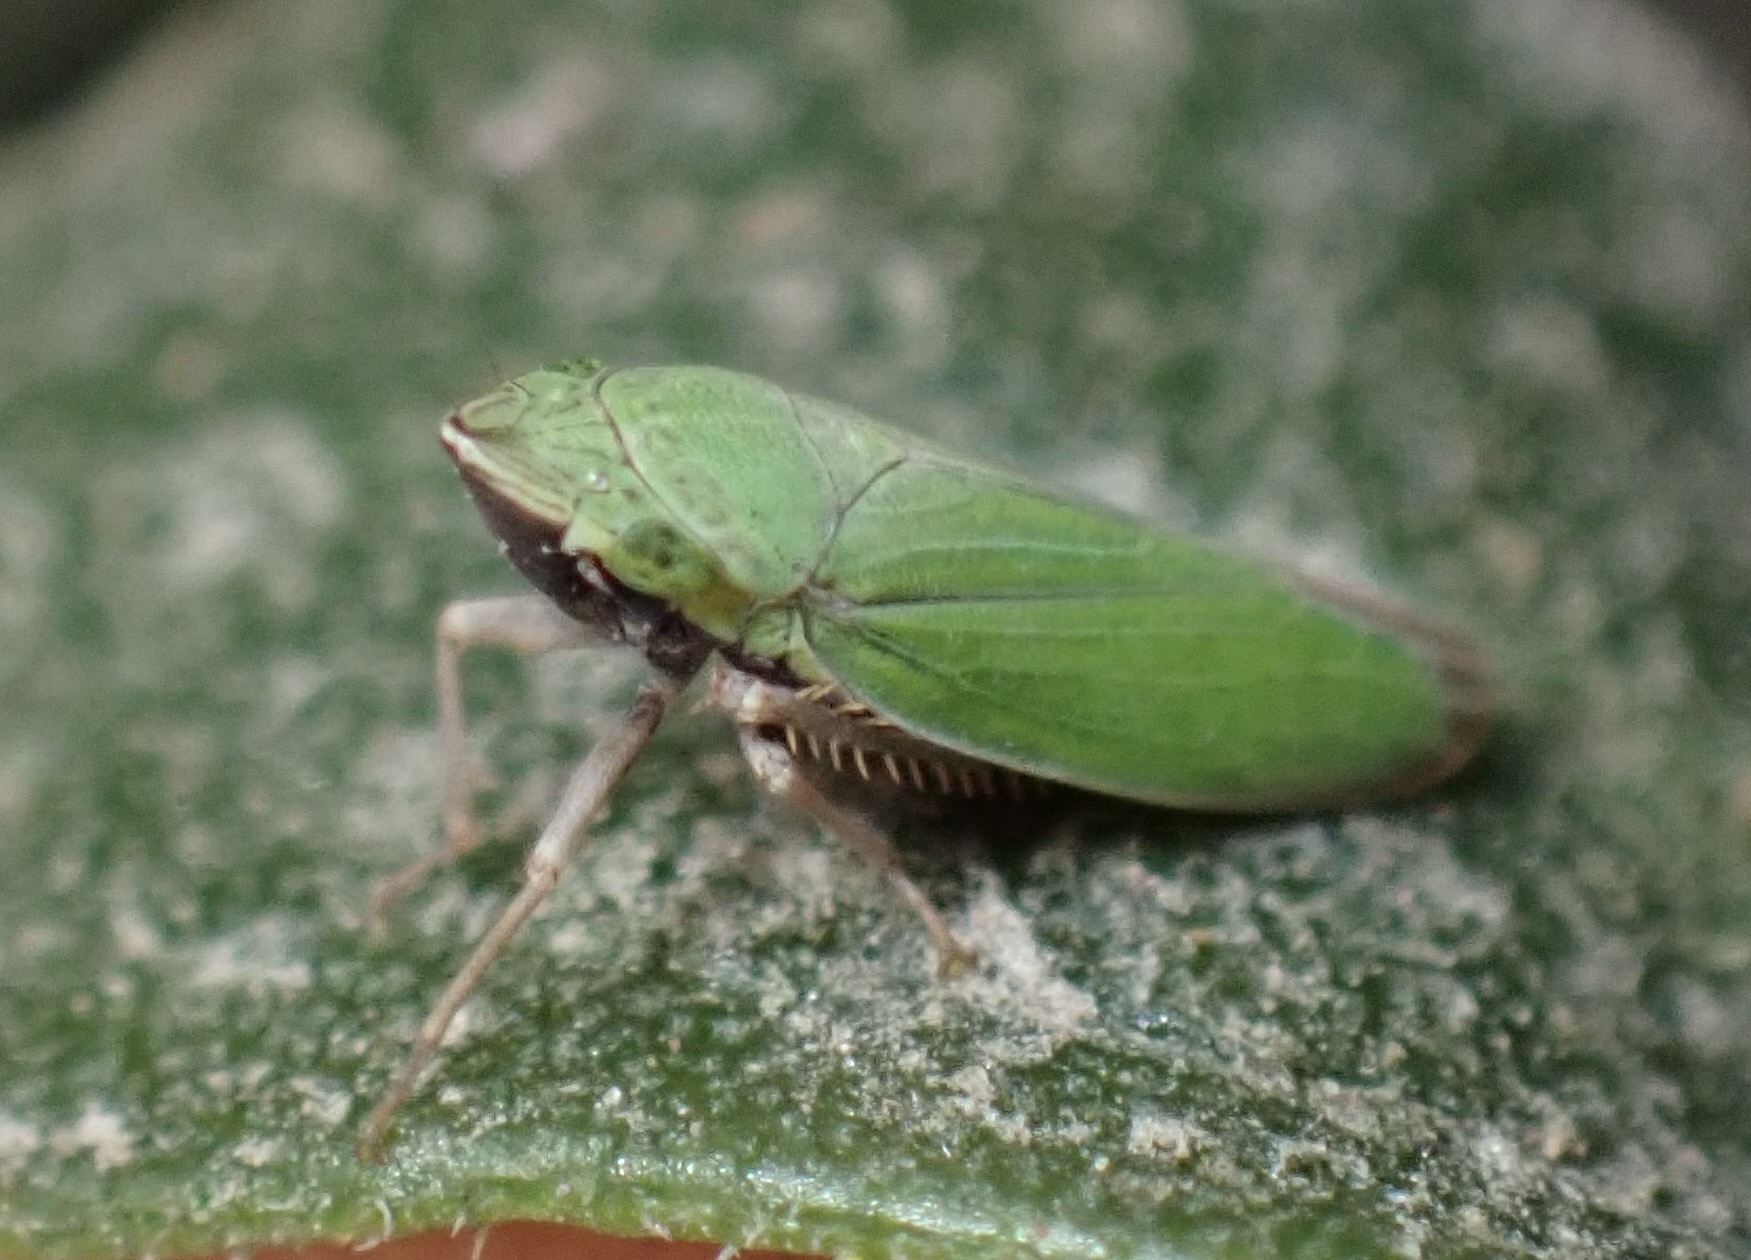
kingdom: Animalia
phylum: Arthropoda
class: Insecta
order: Hemiptera
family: Cicadellidae
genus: Draeculacephala
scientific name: Draeculacephala minerva
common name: Grass sharphooter
